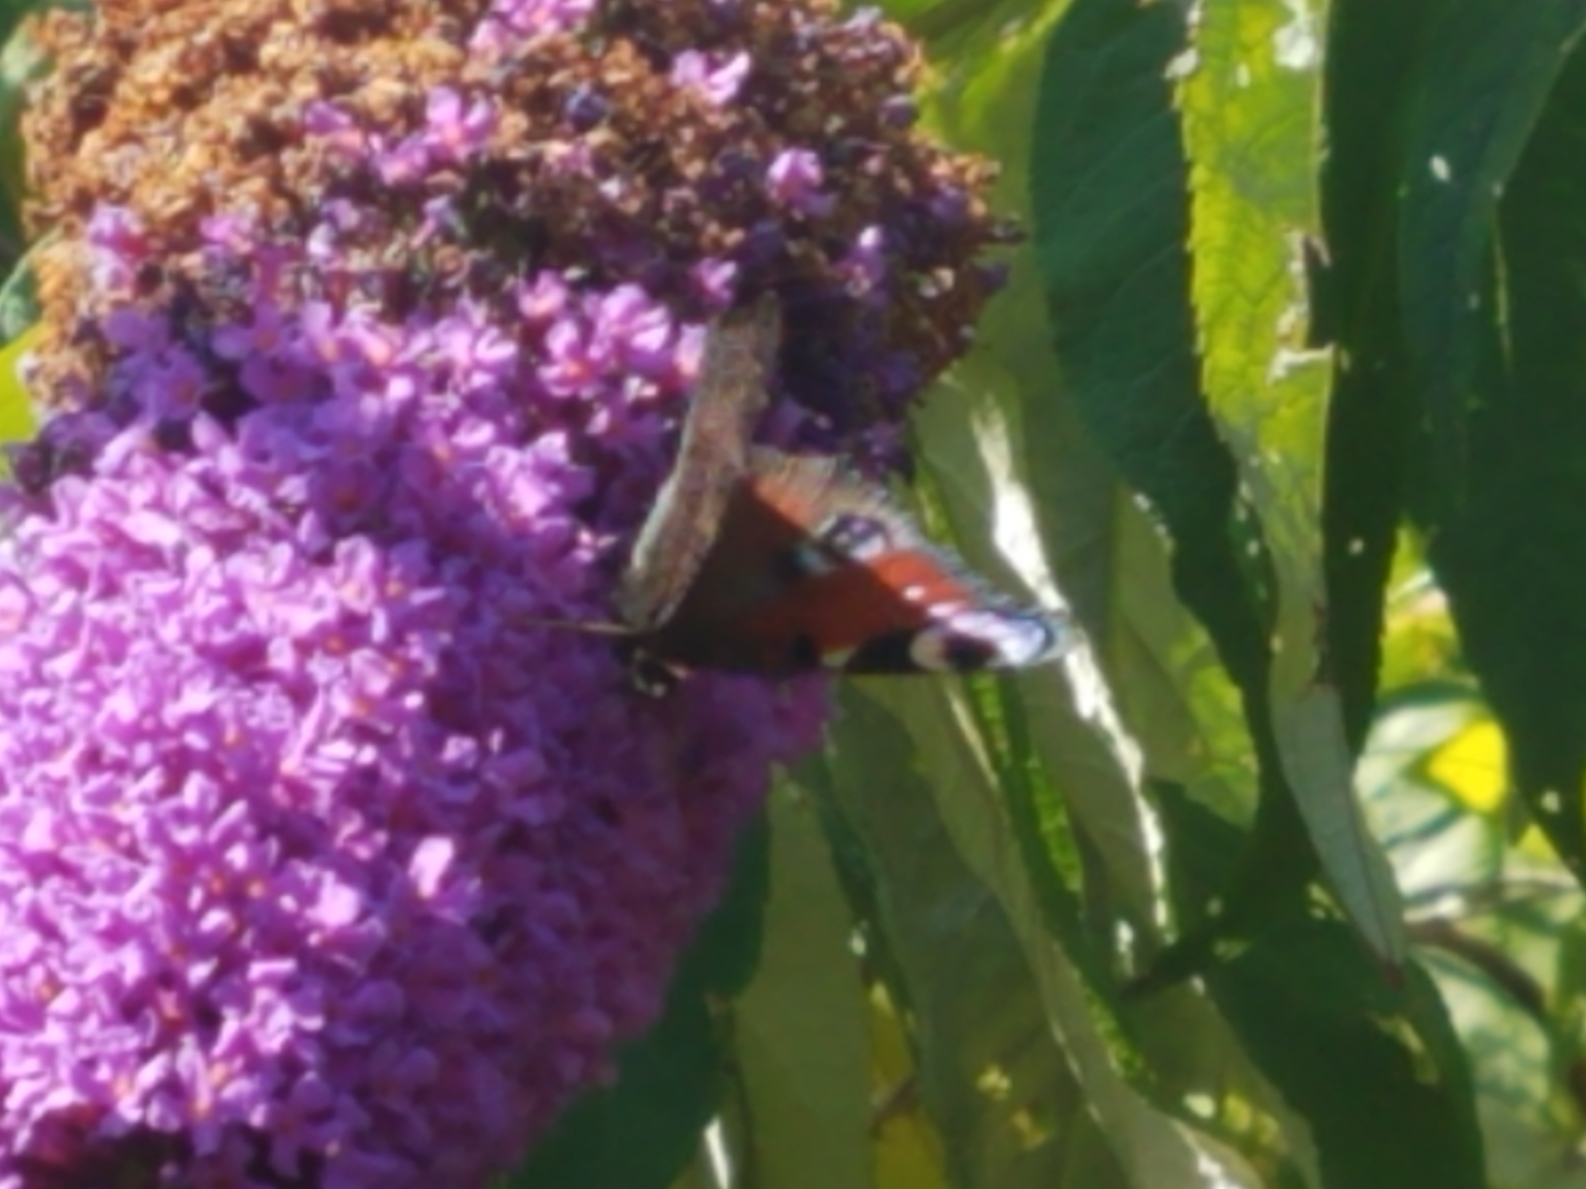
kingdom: Animalia
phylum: Arthropoda
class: Insecta
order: Lepidoptera
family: Nymphalidae
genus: Aglais
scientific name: Aglais io
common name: Peacock
